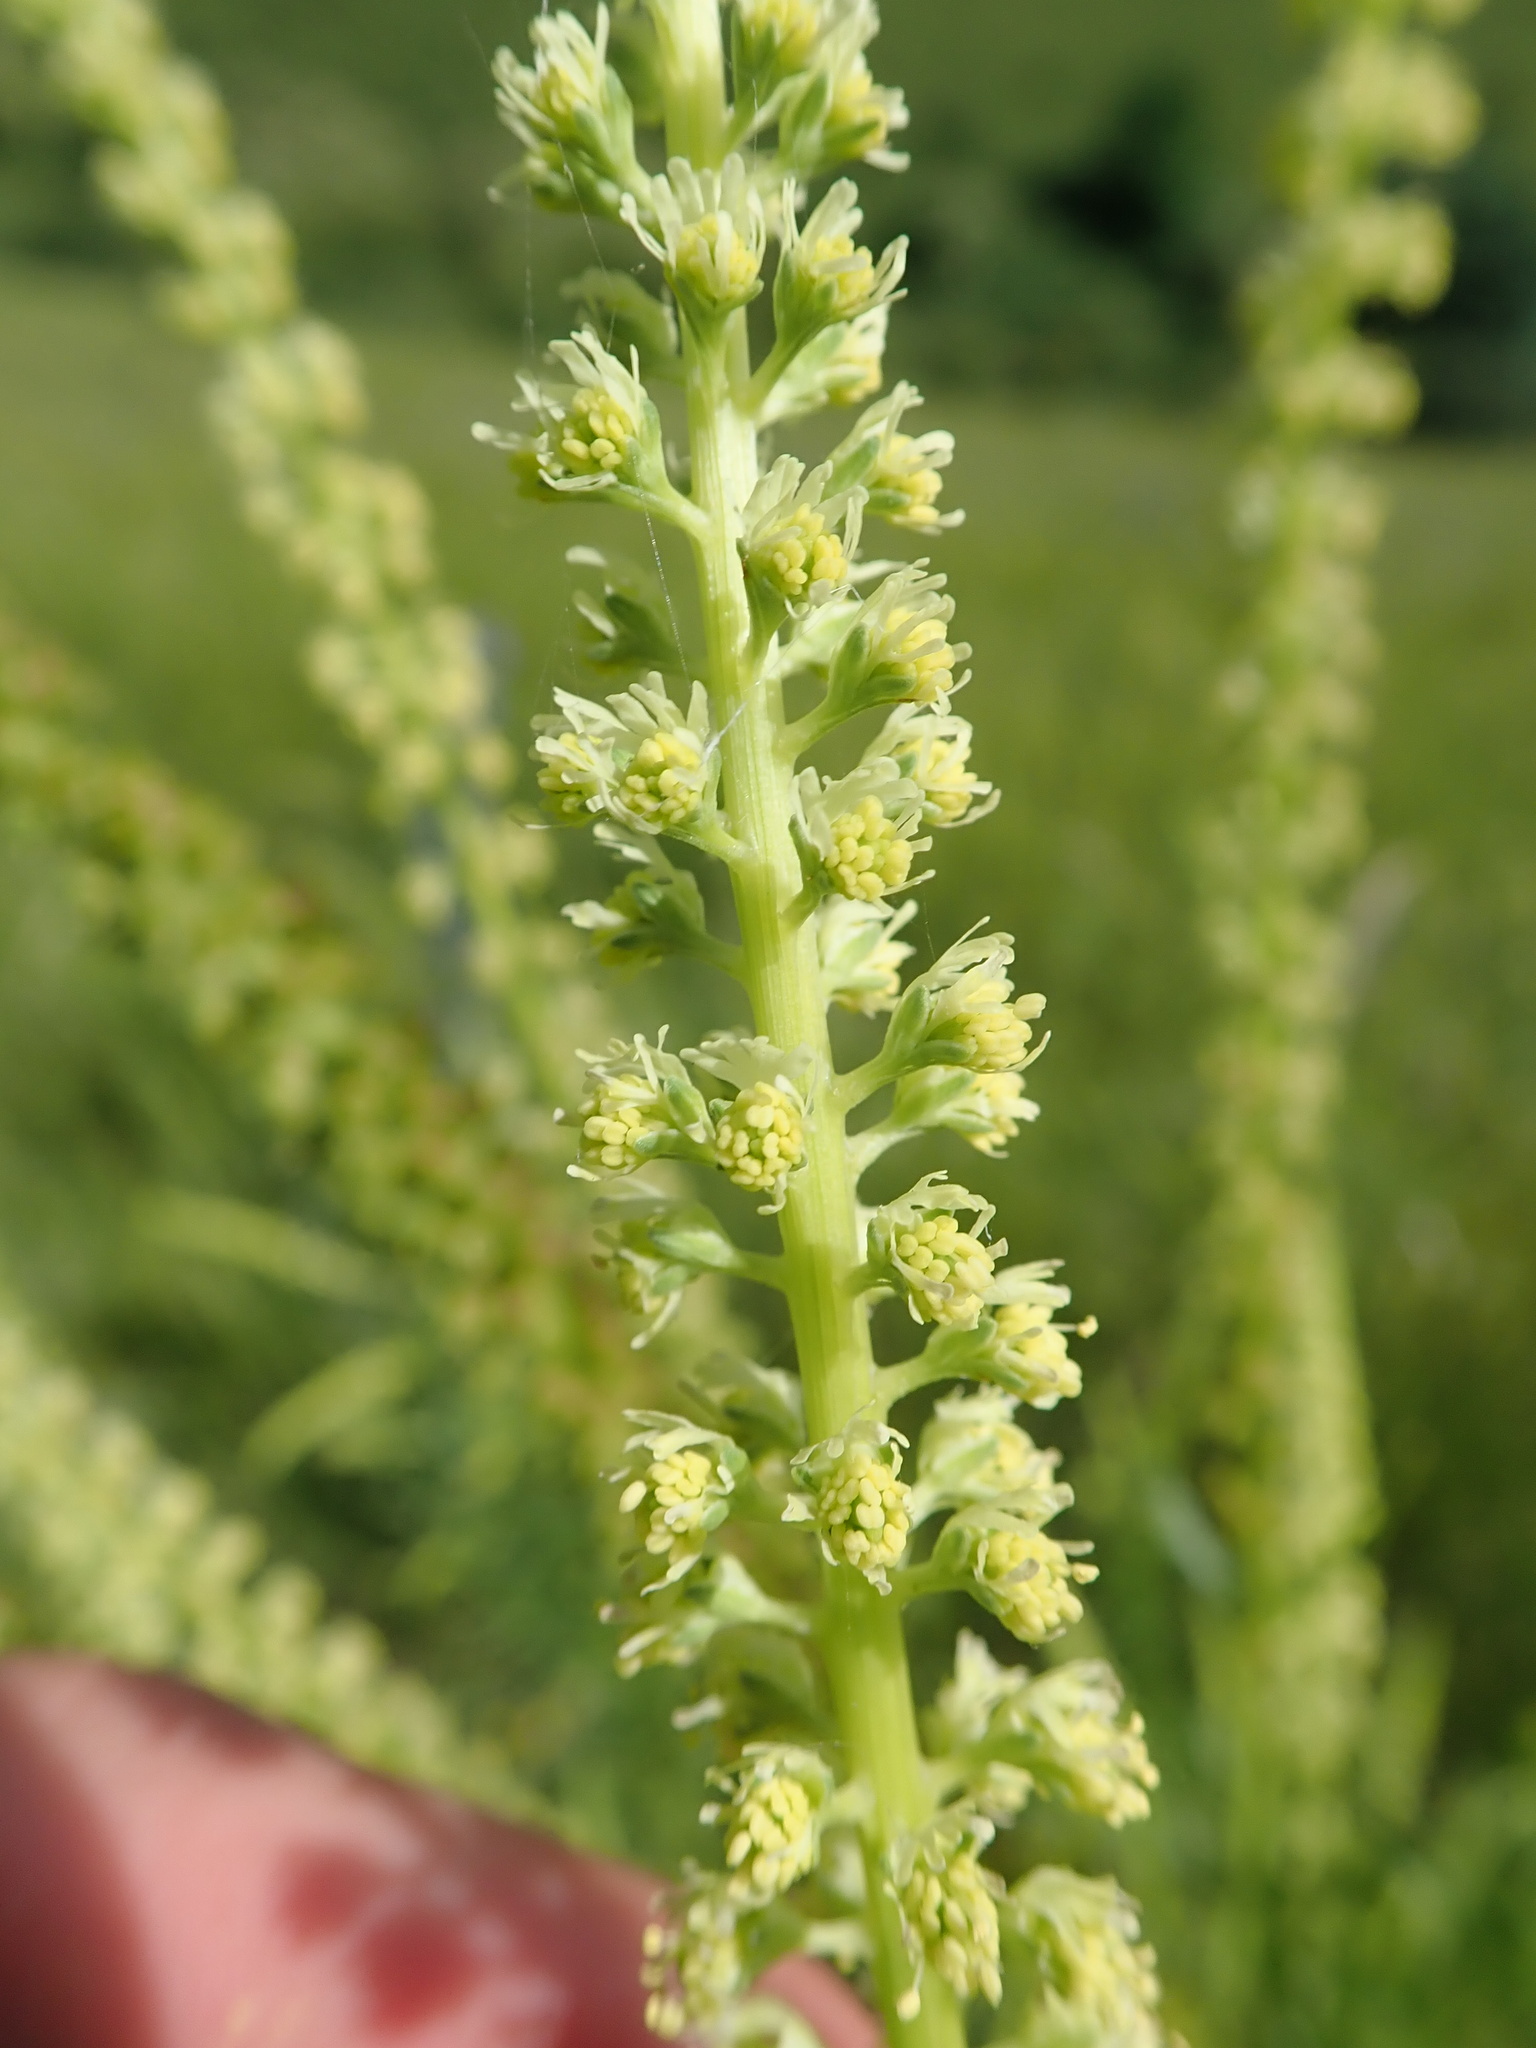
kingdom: Plantae
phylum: Tracheophyta
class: Magnoliopsida
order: Brassicales
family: Resedaceae
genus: Reseda
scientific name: Reseda luteola
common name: Weld
